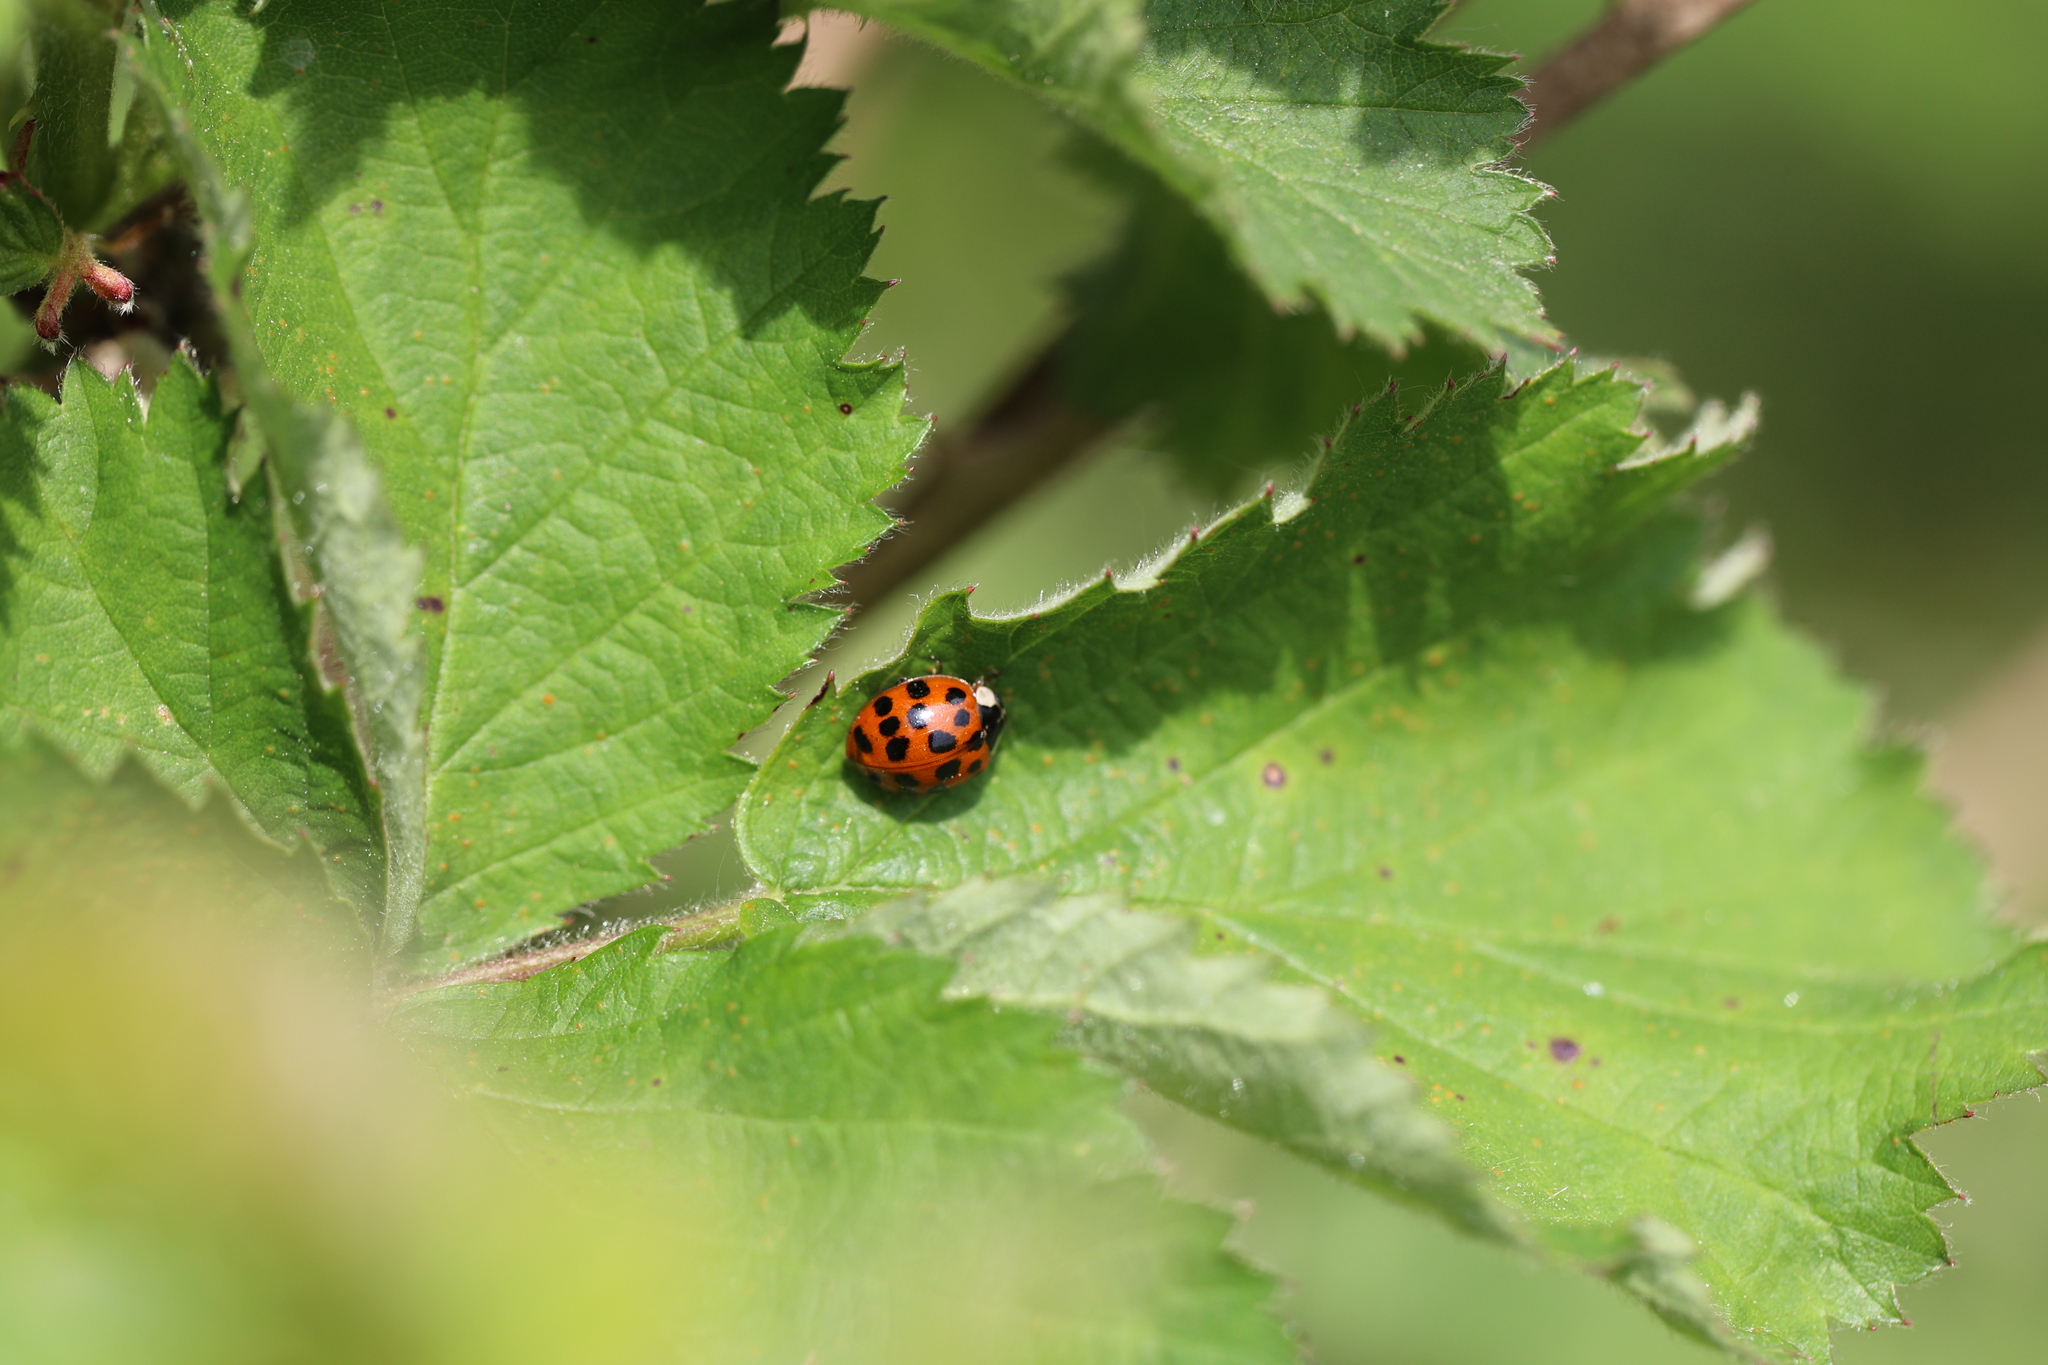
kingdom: Animalia
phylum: Arthropoda
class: Insecta
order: Coleoptera
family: Coccinellidae
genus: Harmonia
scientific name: Harmonia axyridis
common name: Harlequin ladybird
